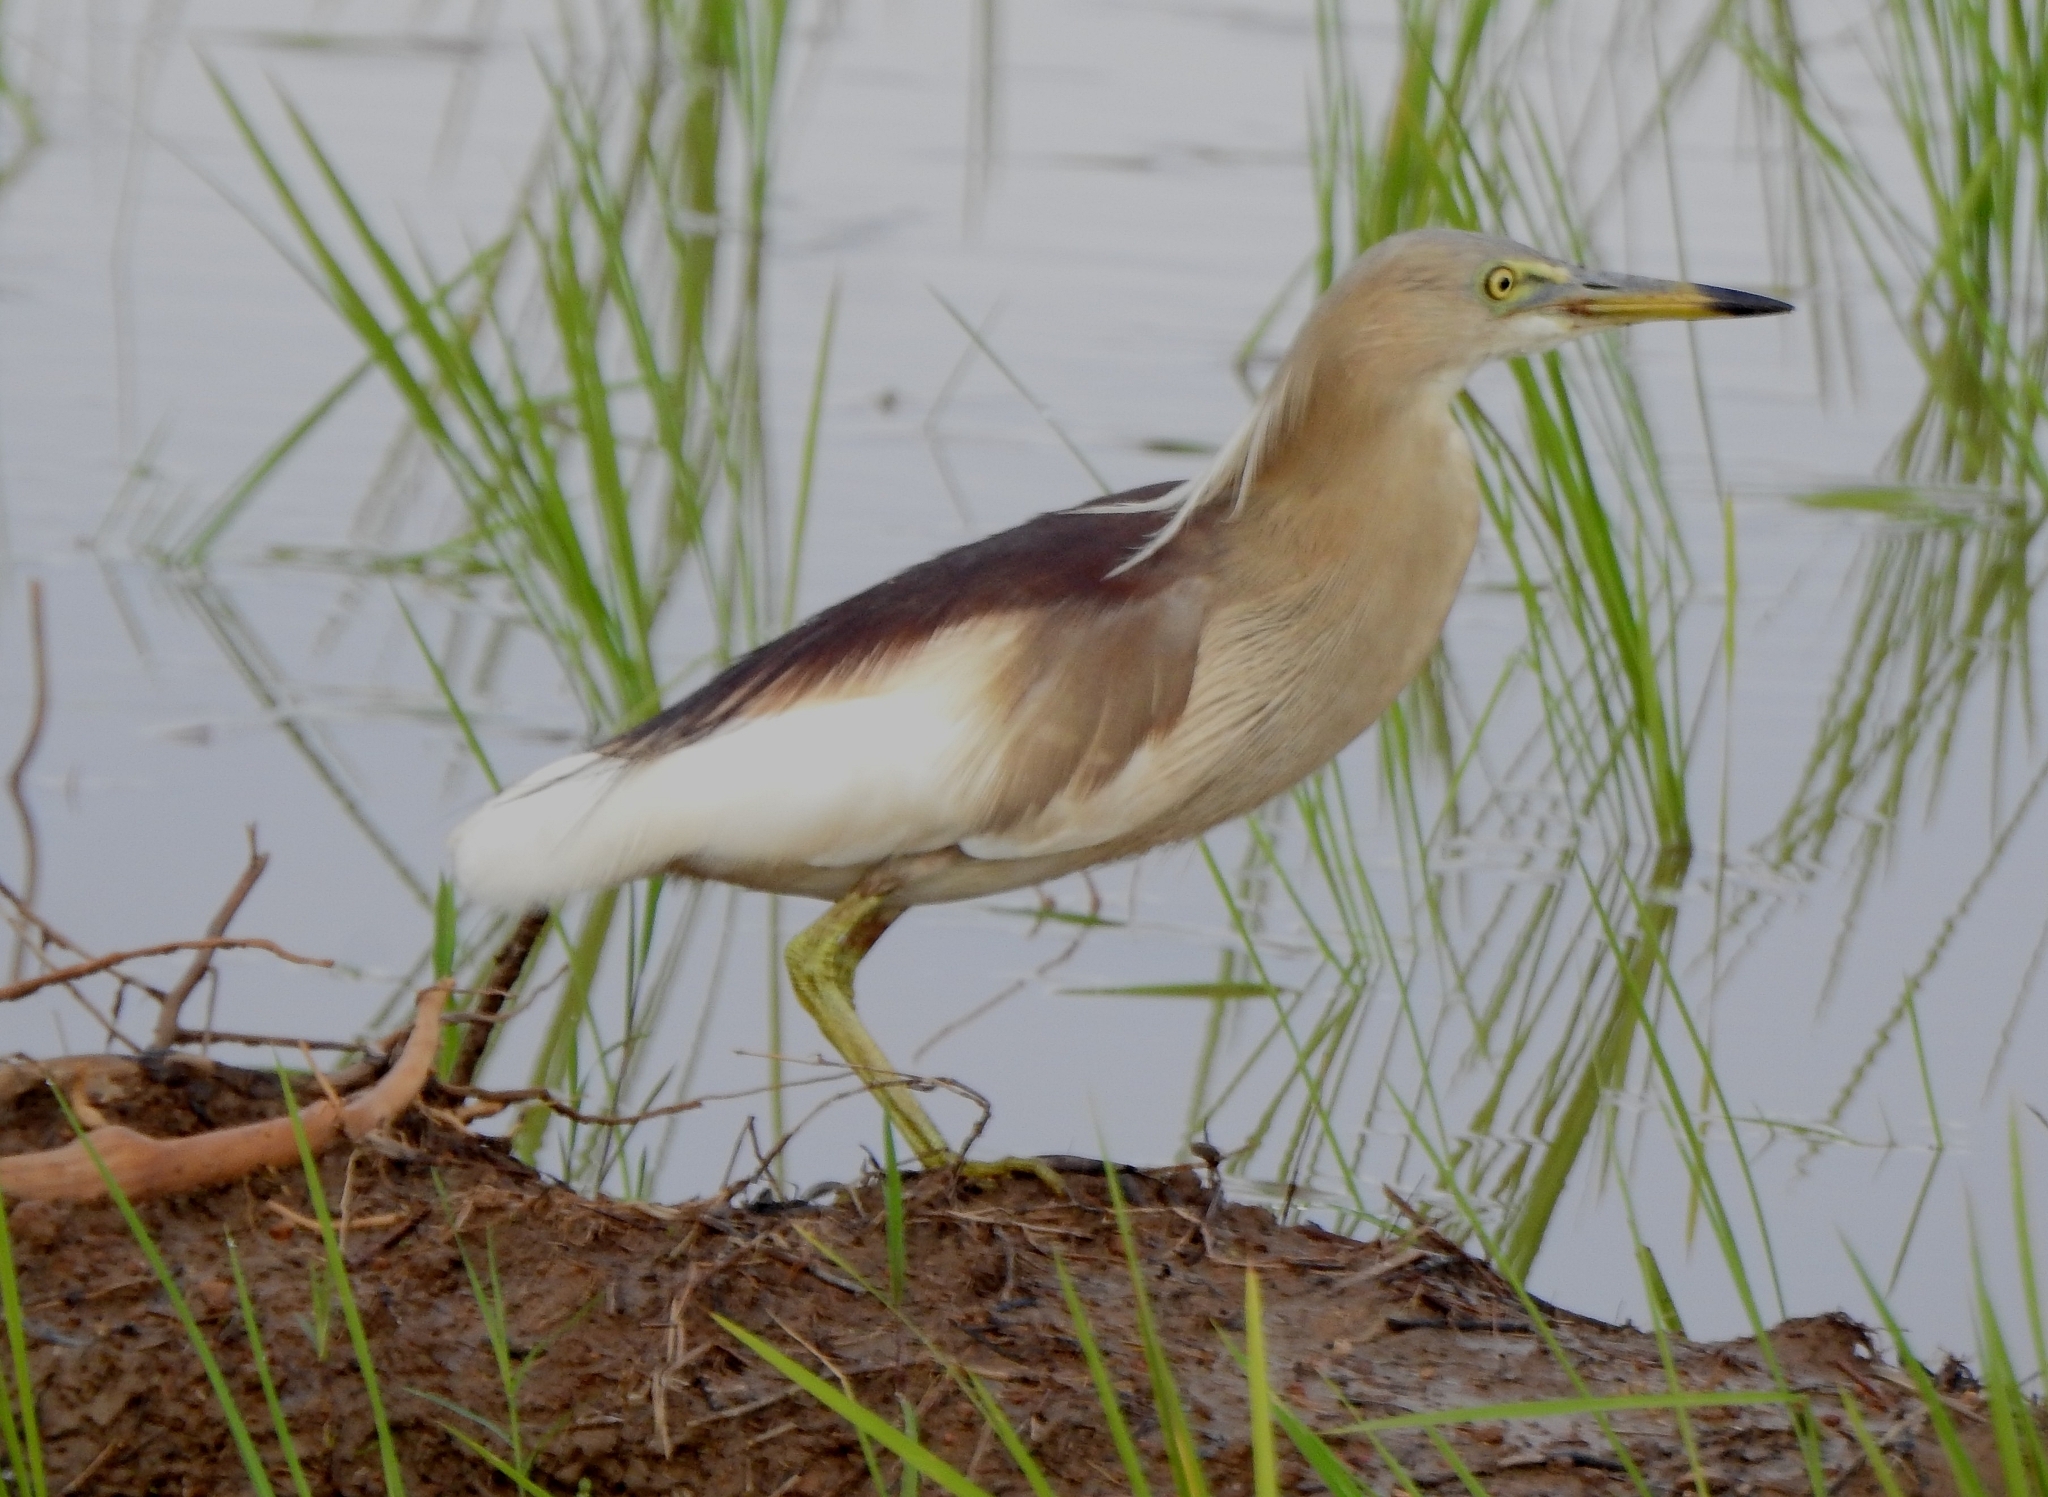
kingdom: Animalia
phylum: Chordata
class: Aves
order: Pelecaniformes
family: Ardeidae
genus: Ardeola
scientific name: Ardeola grayii
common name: Indian pond heron
